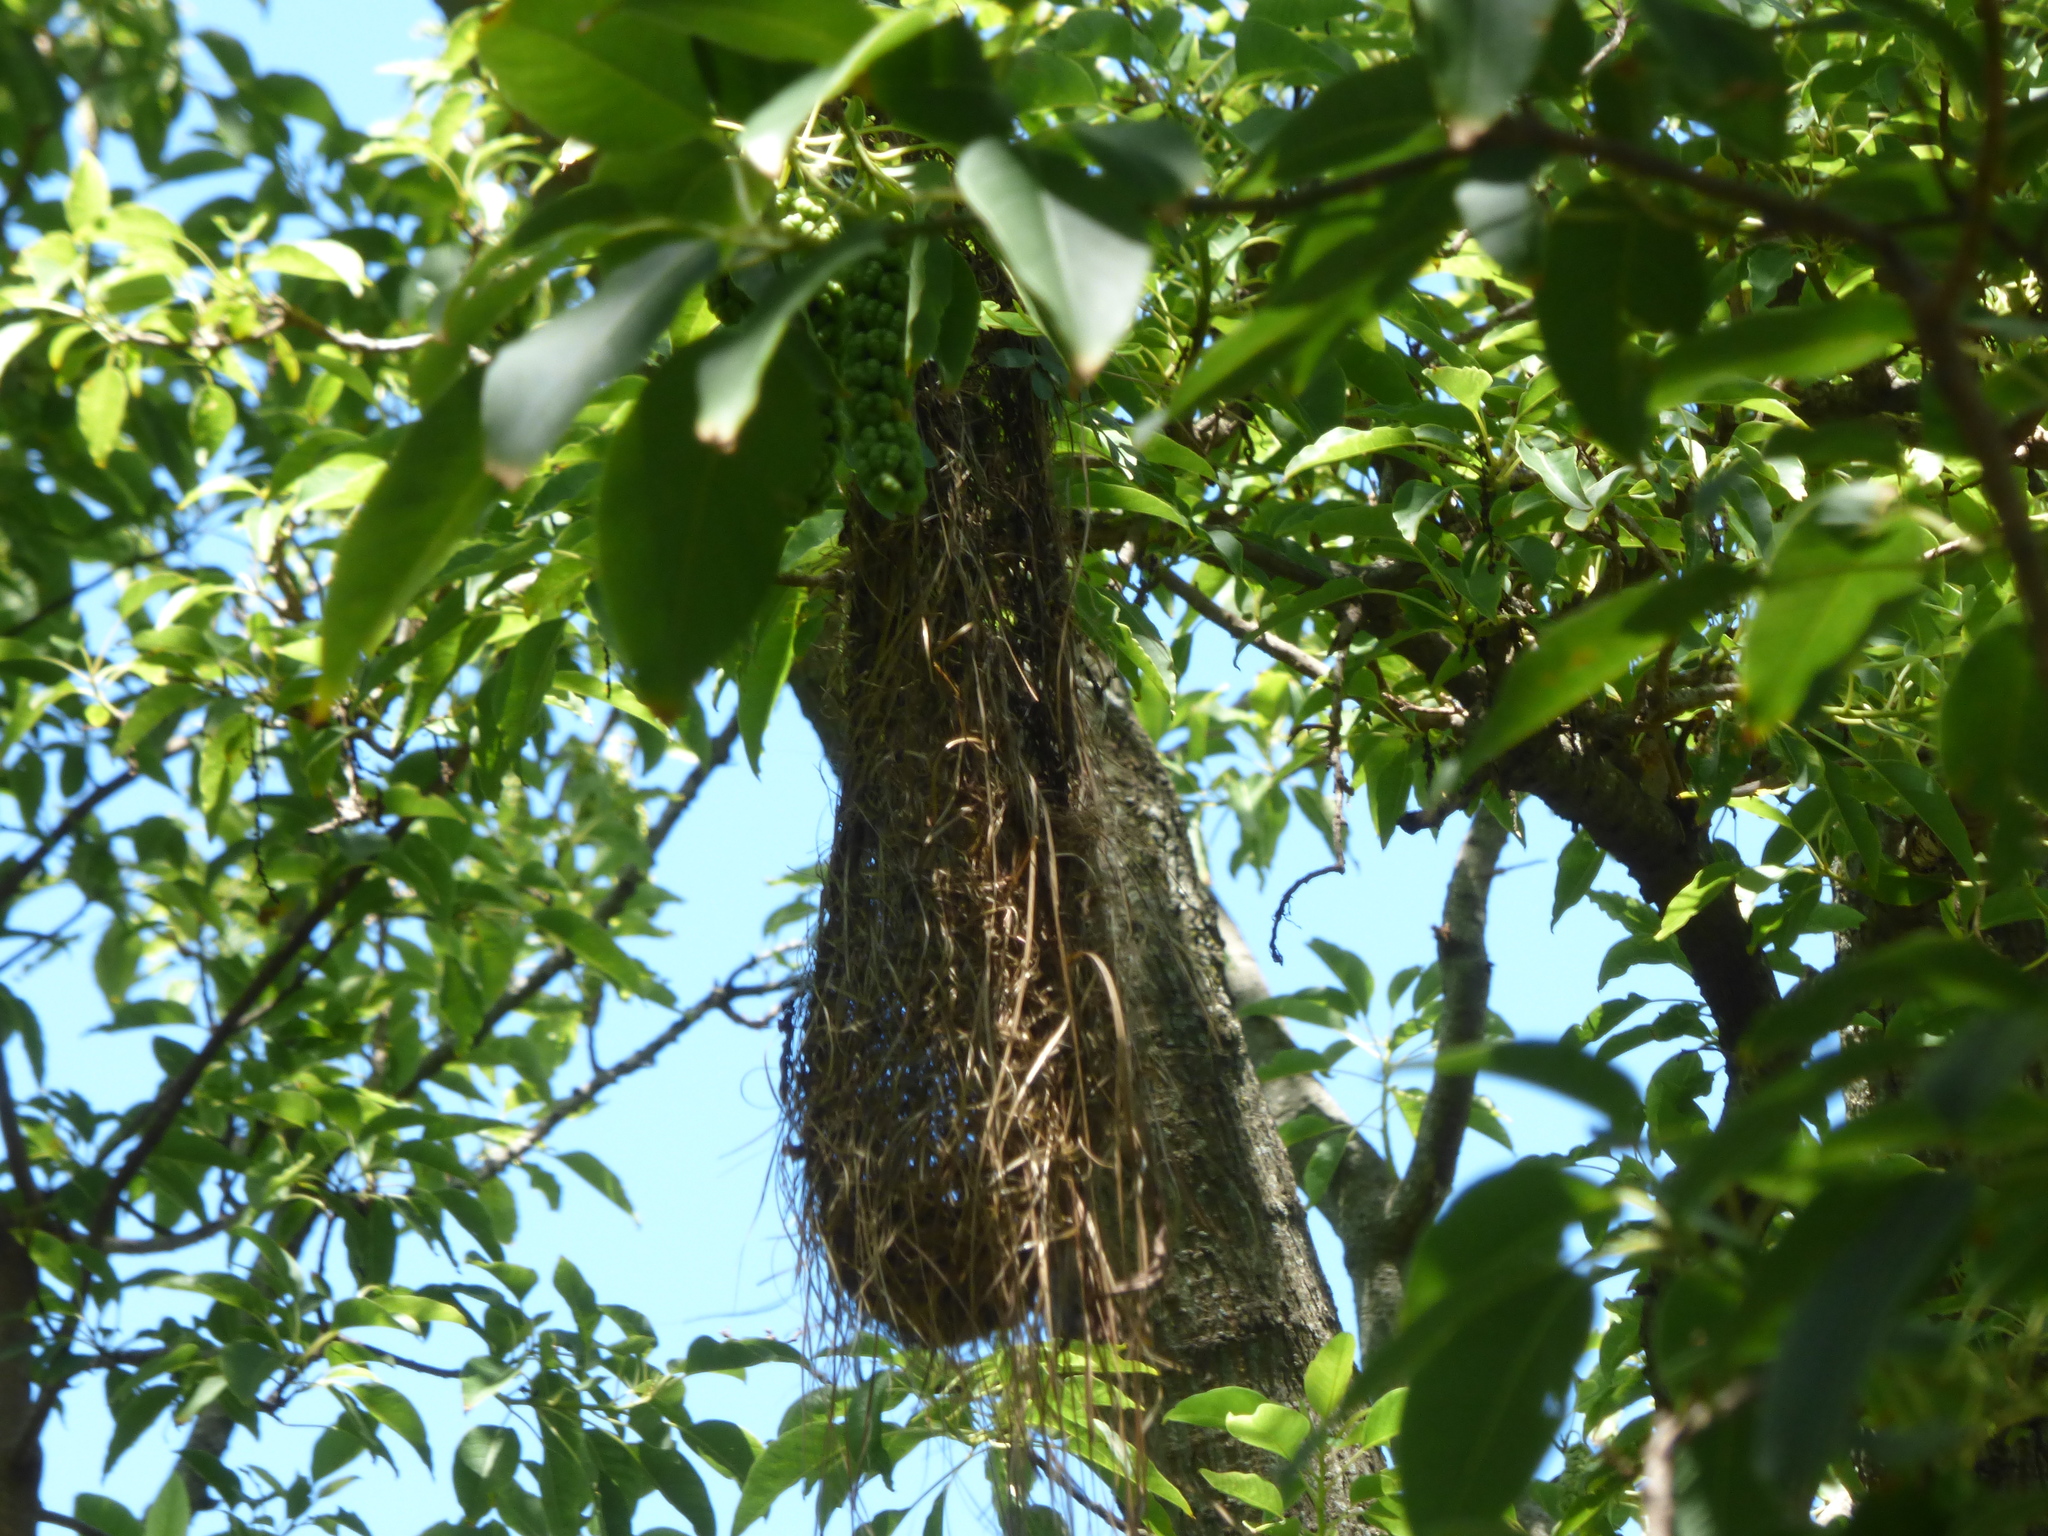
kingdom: Animalia
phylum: Chordata
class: Aves
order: Passeriformes
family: Icteridae
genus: Cacicus
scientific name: Cacicus solitarius
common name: Solitary cacique
